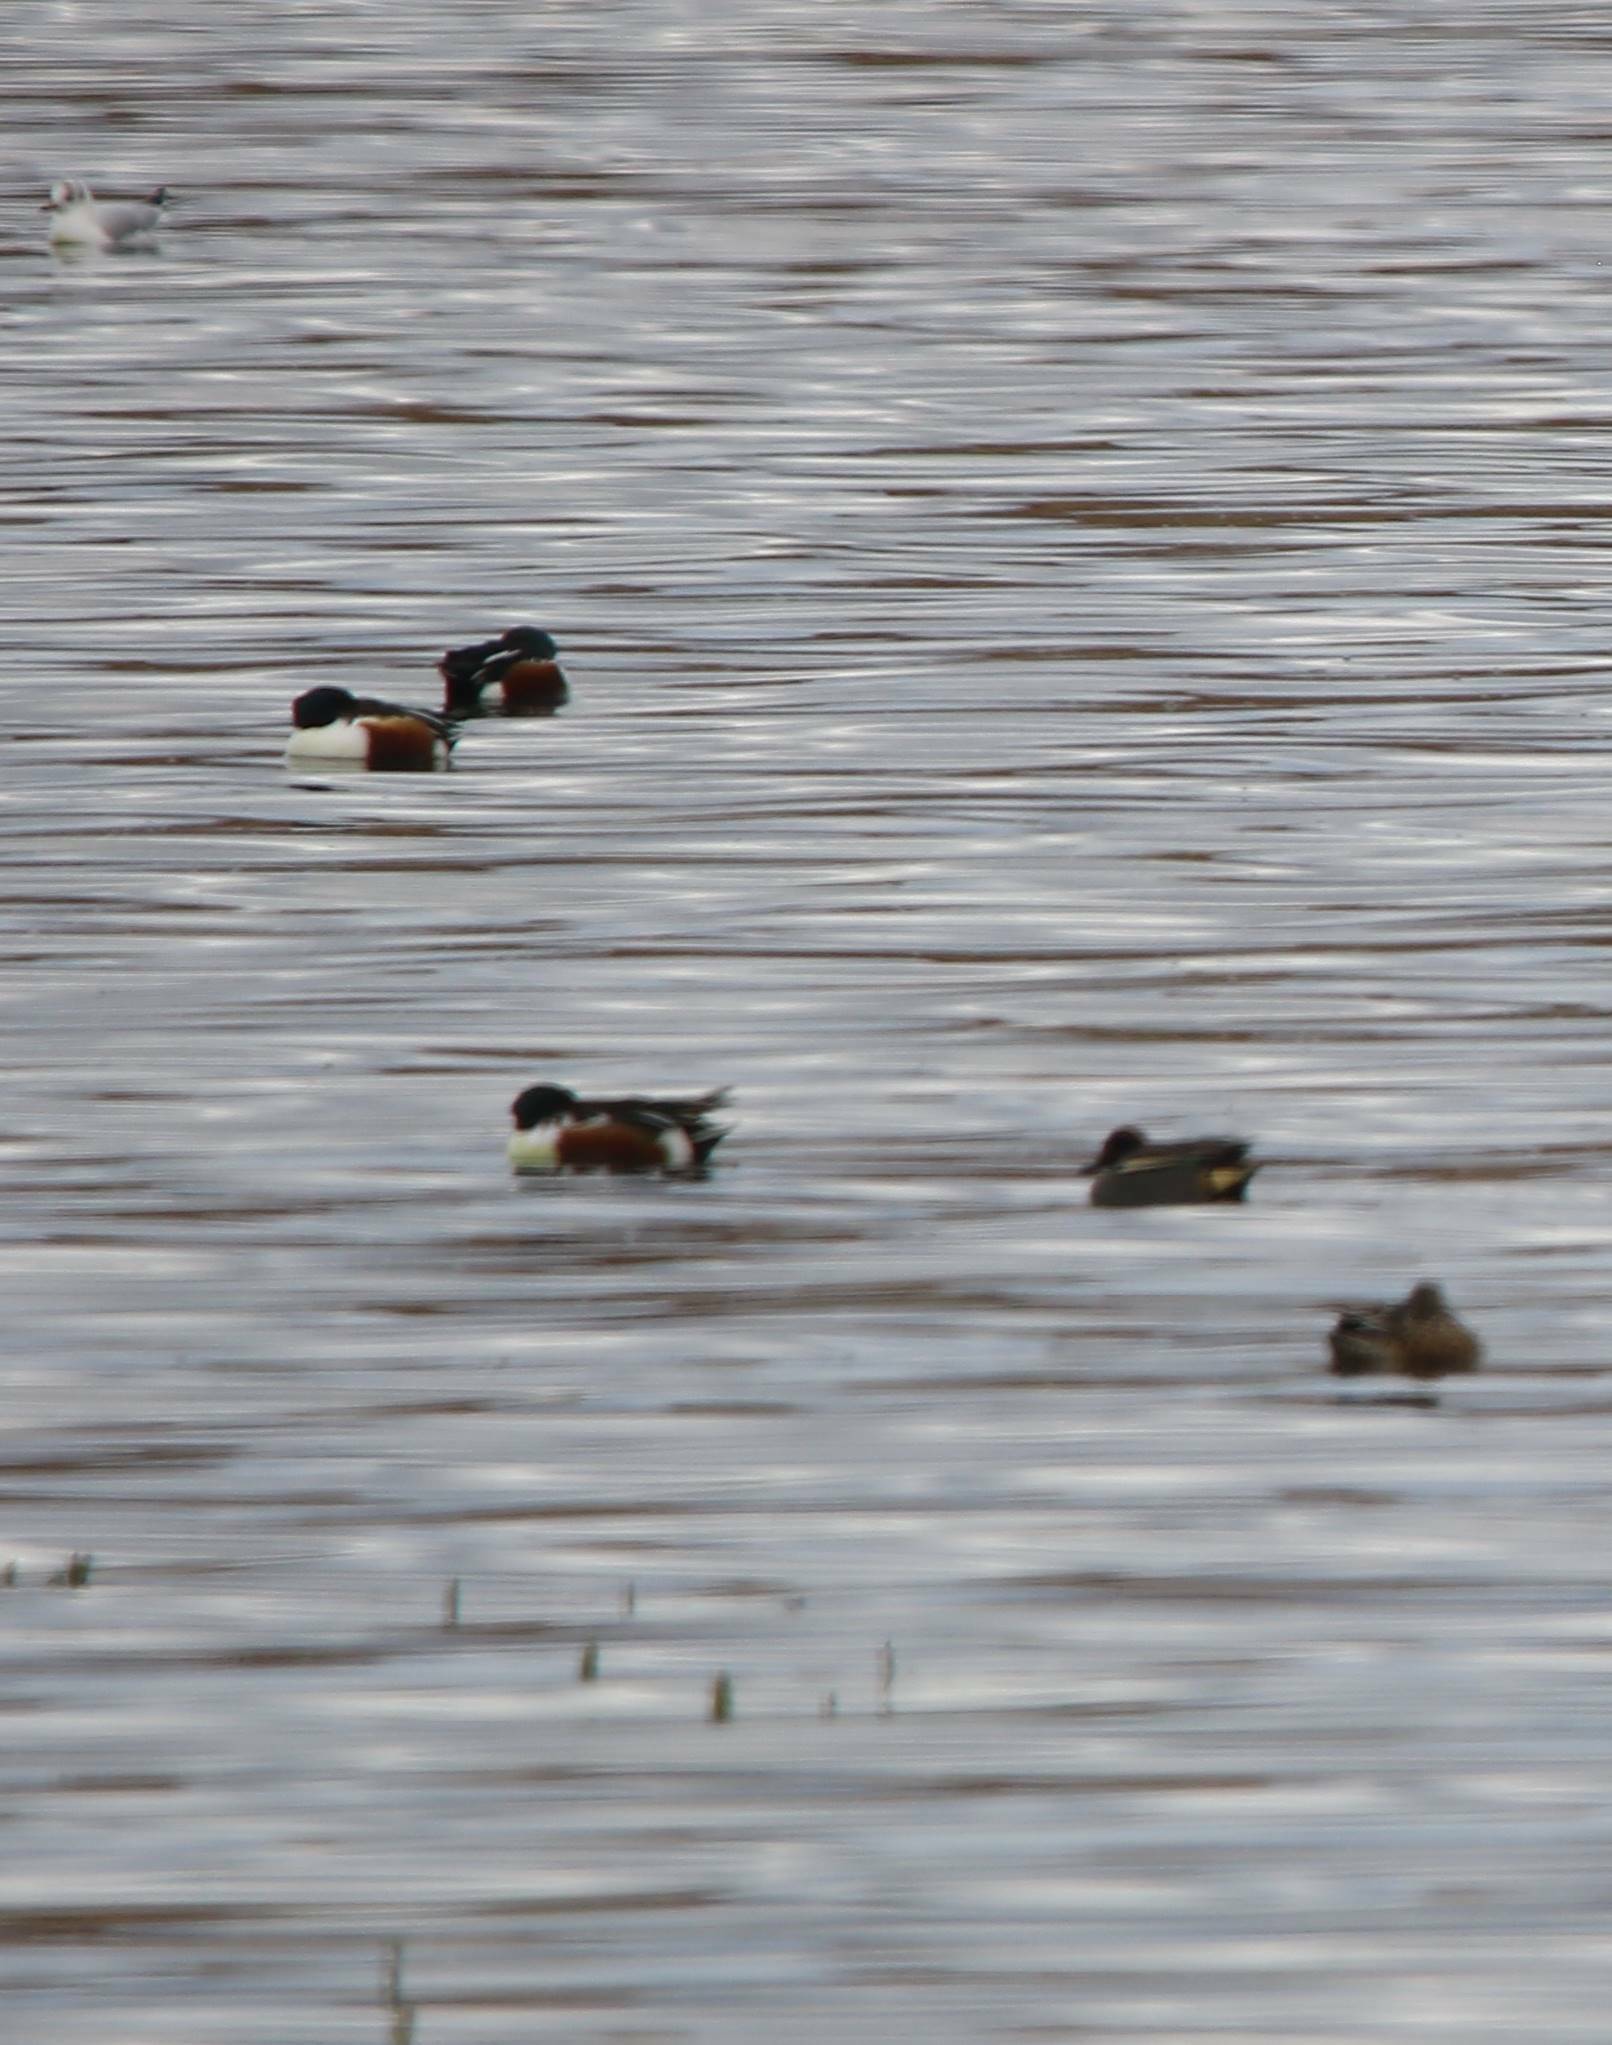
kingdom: Animalia
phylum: Chordata
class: Aves
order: Anseriformes
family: Anatidae
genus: Spatula
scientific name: Spatula clypeata
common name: Northern shoveler
